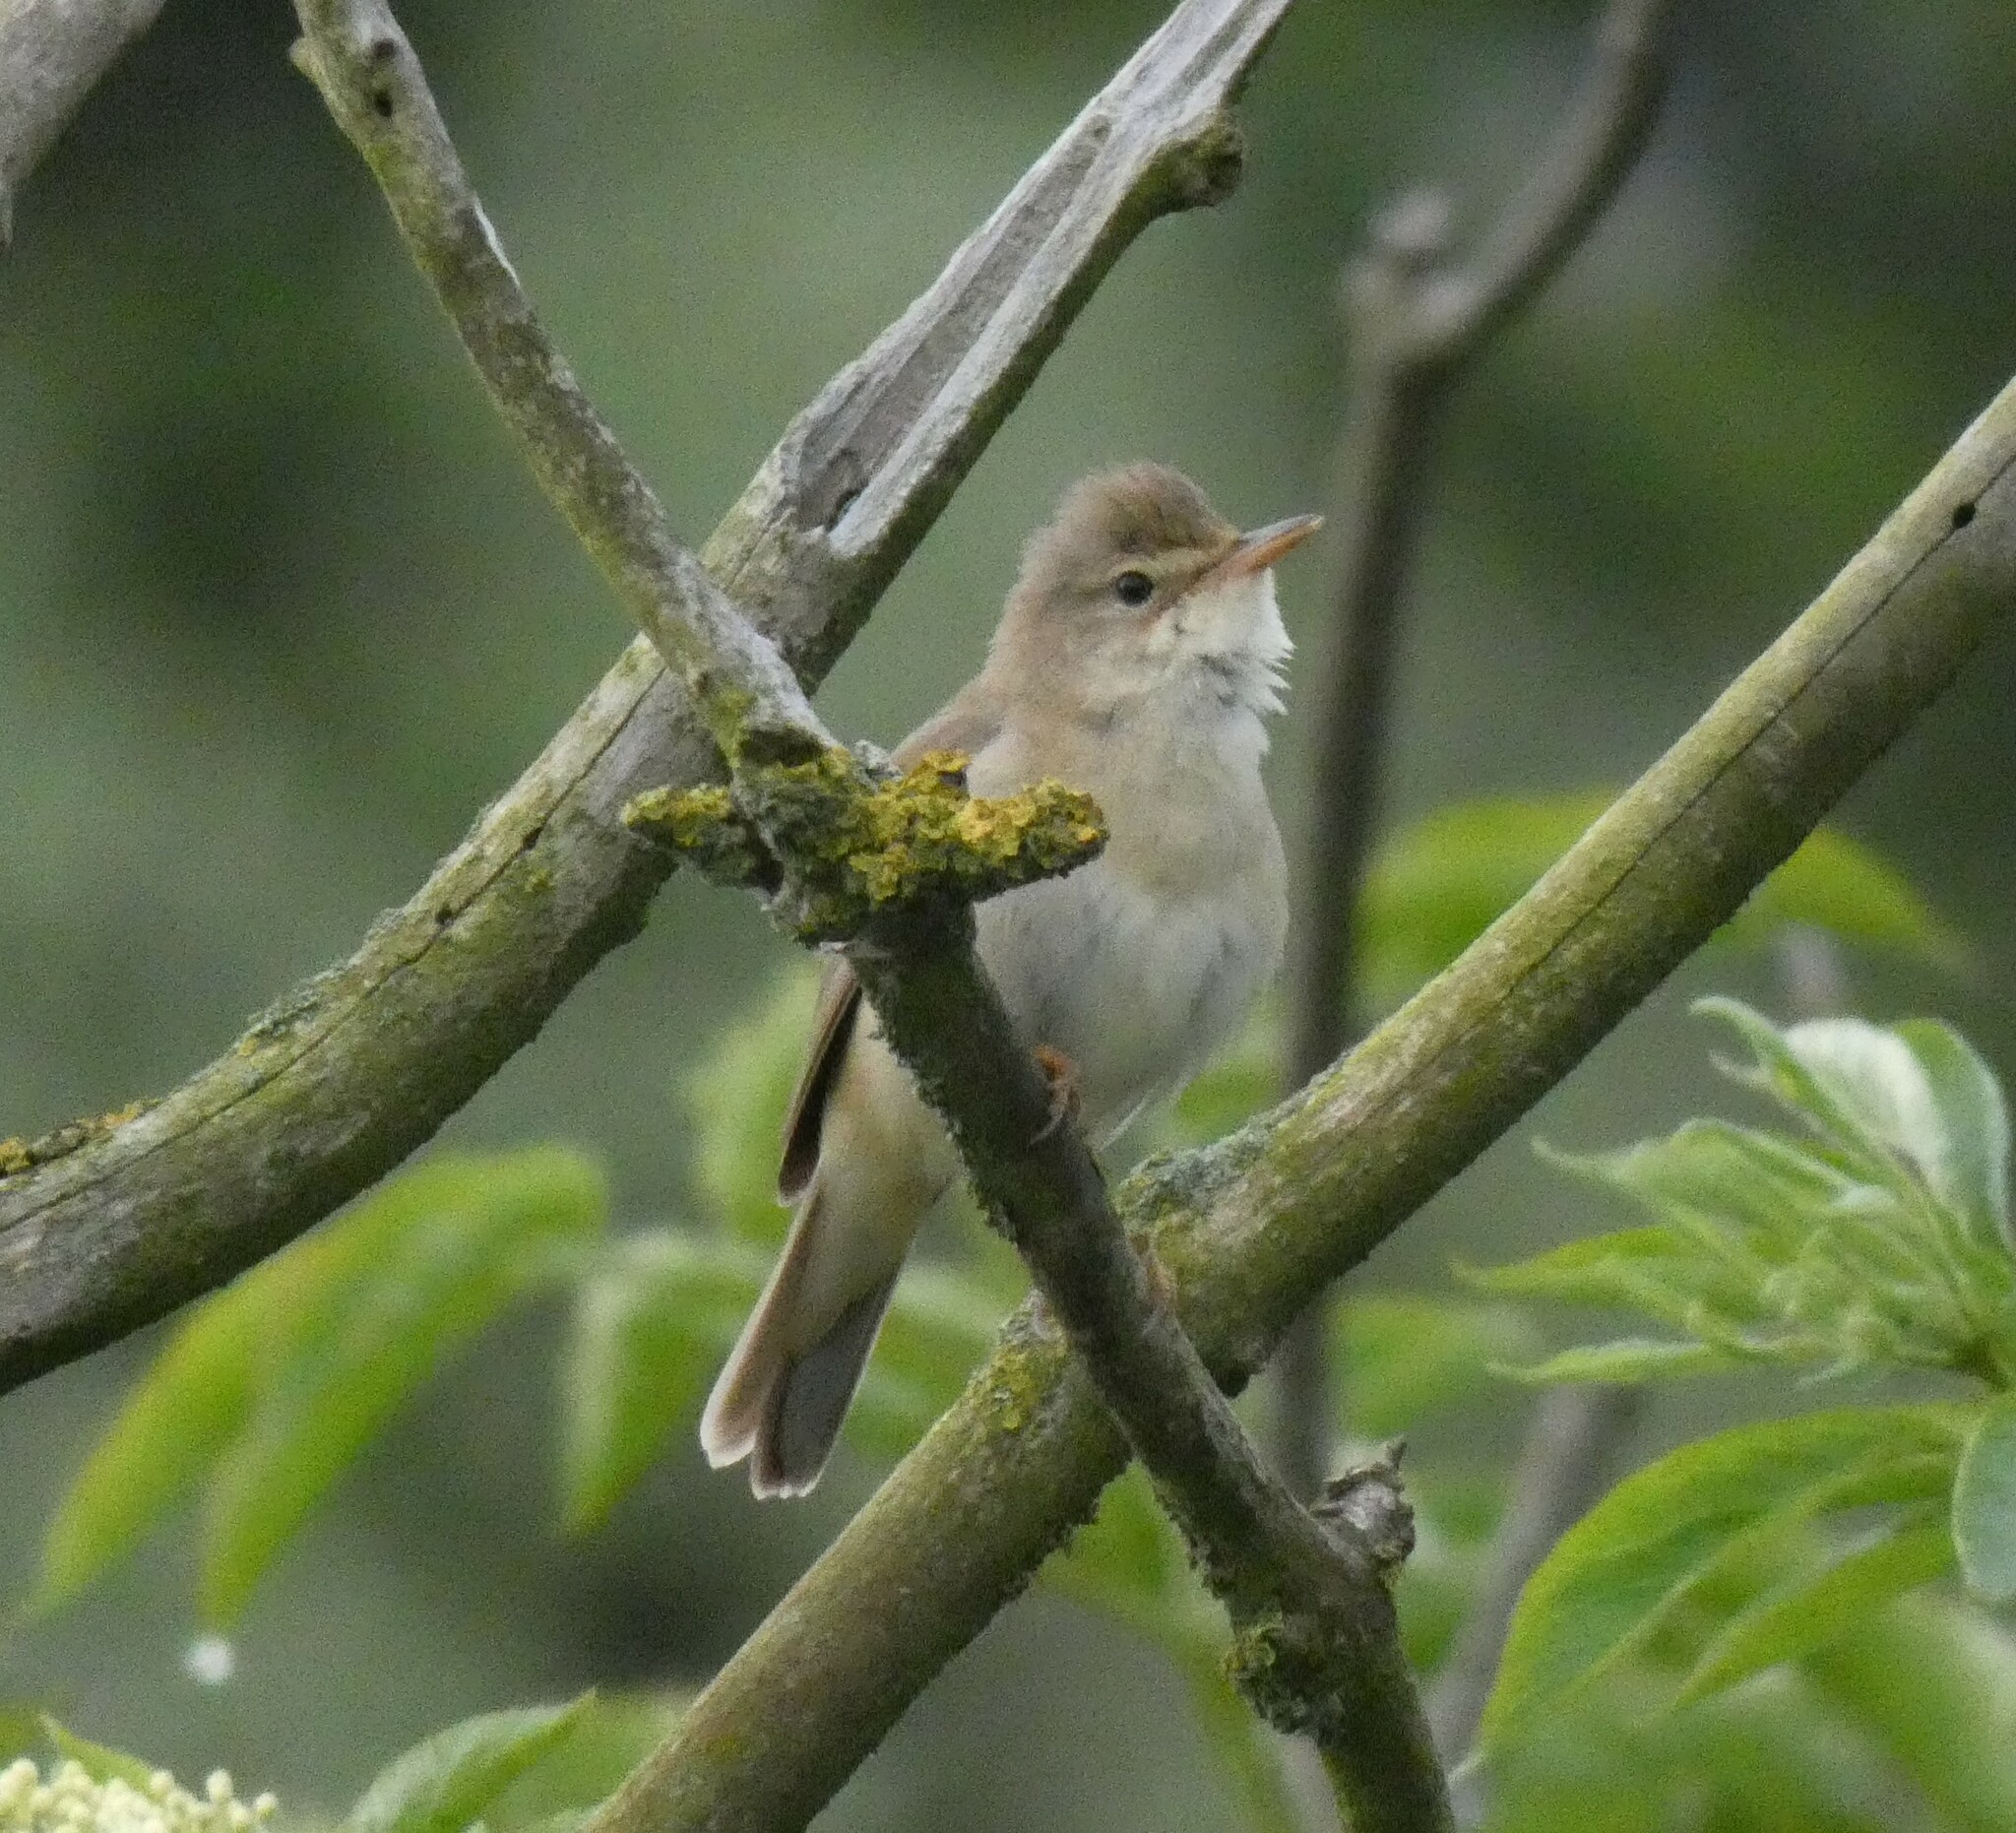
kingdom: Animalia
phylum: Chordata
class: Aves
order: Passeriformes
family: Acrocephalidae
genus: Acrocephalus
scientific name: Acrocephalus palustris
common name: Marsh warbler
